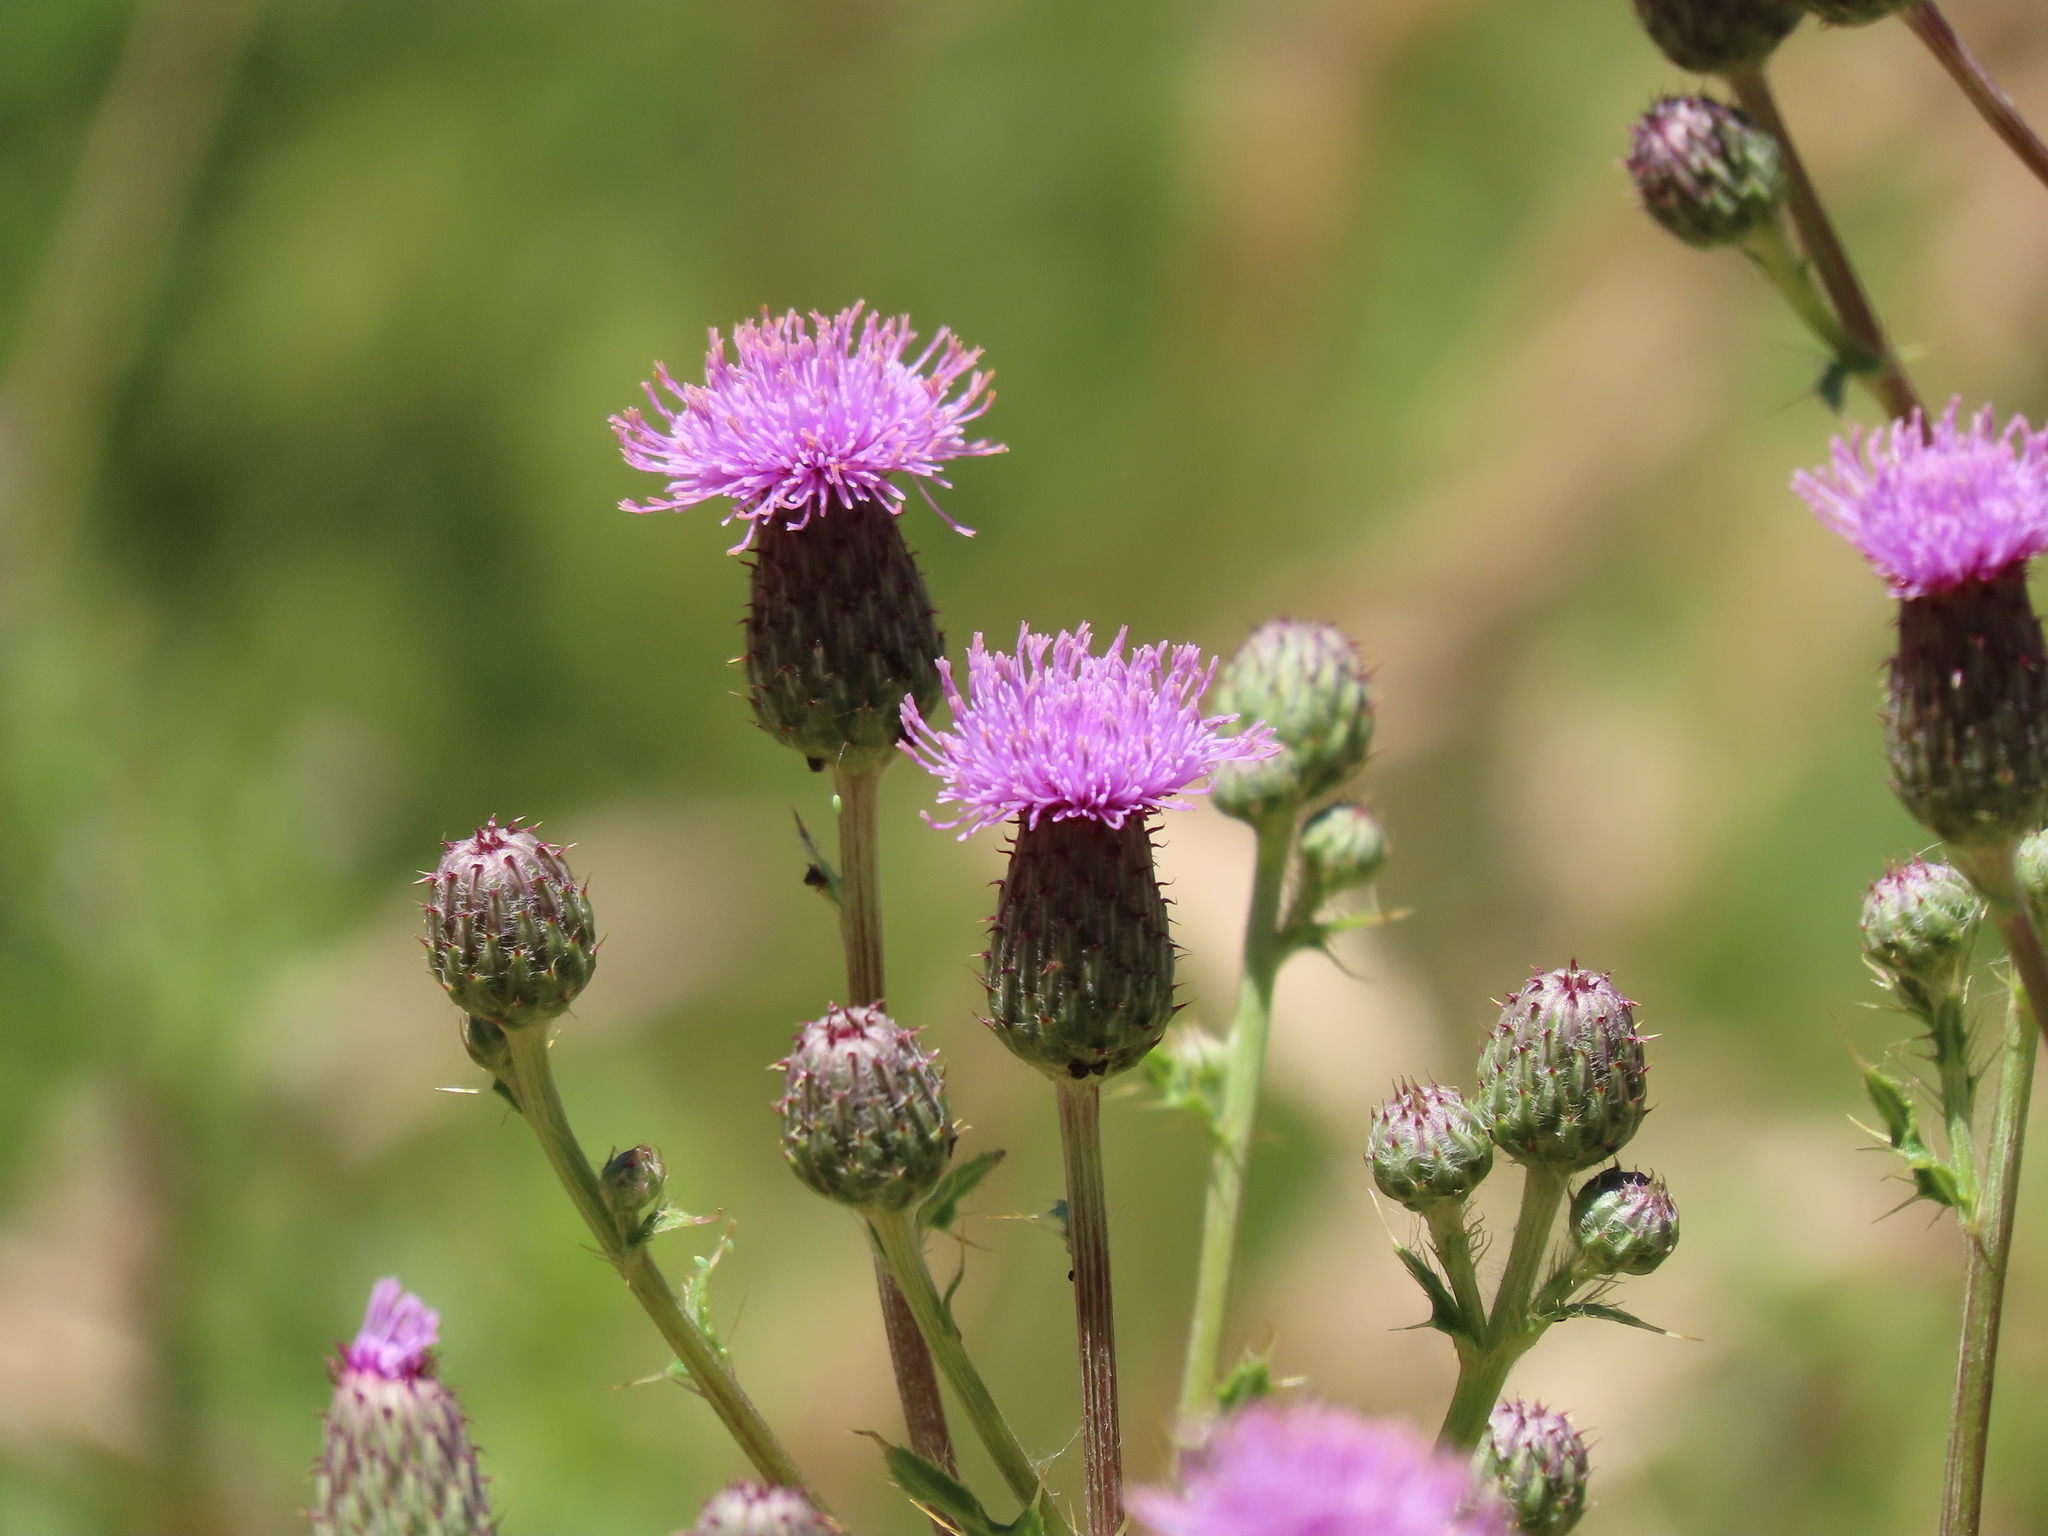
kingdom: Plantae
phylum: Tracheophyta
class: Magnoliopsida
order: Asterales
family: Asteraceae
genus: Cirsium
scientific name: Cirsium arvense
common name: Creeping thistle
